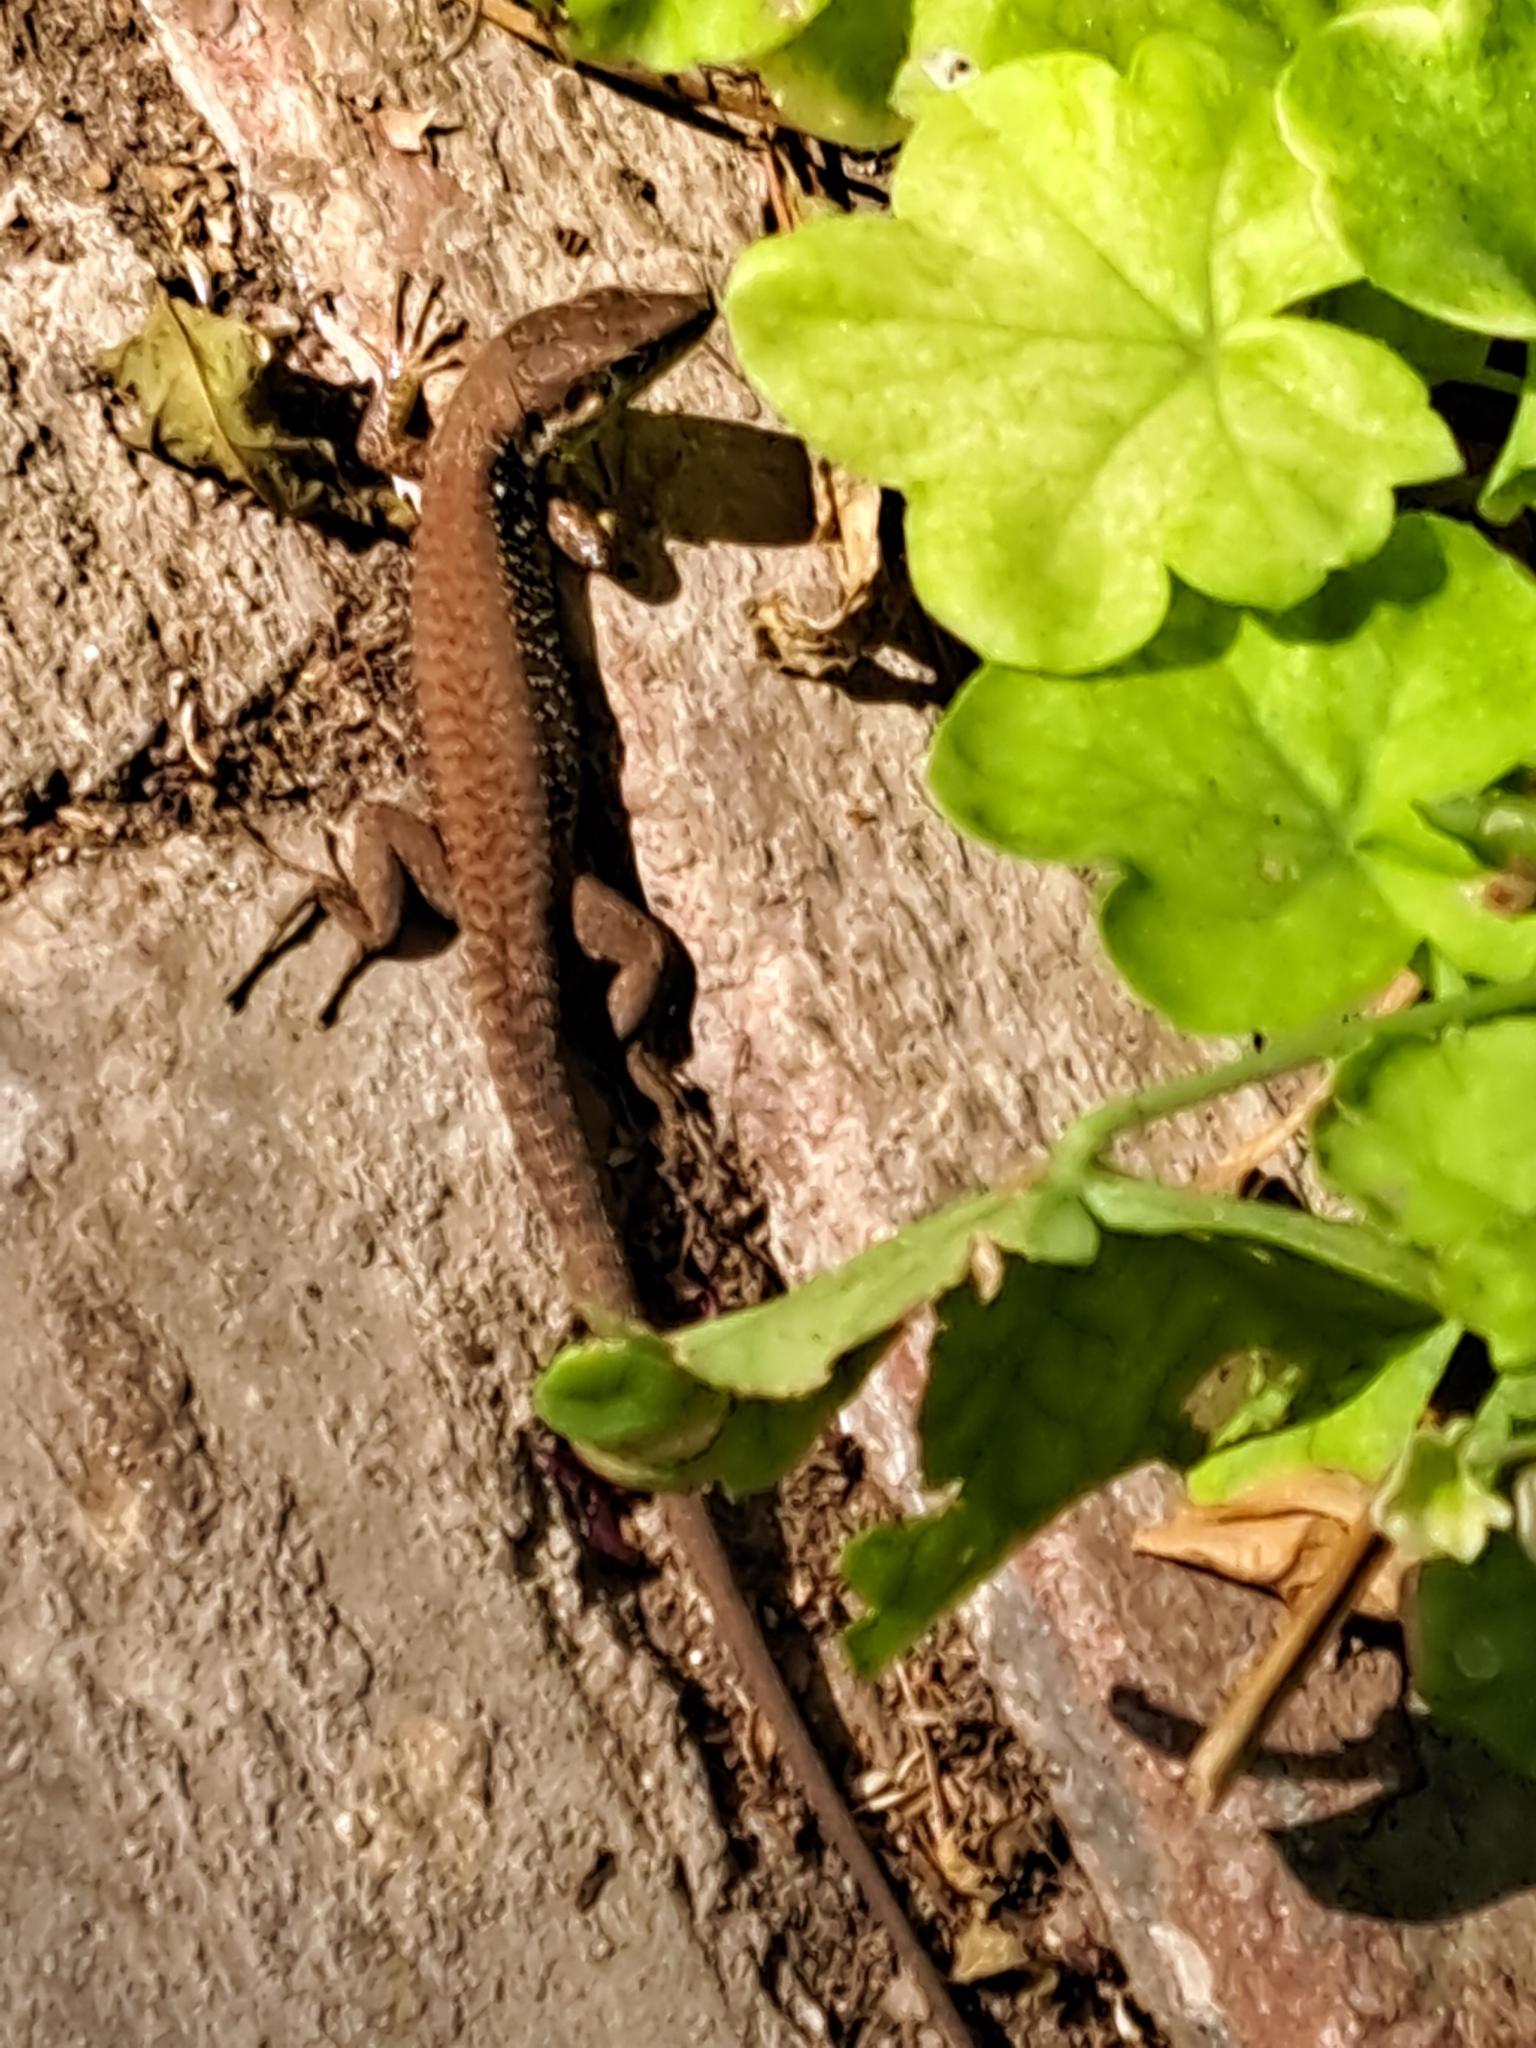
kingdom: Animalia
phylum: Chordata
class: Squamata
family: Lacertidae
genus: Phoenicolacerta
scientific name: Phoenicolacerta laevis
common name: Lebanon lizard
